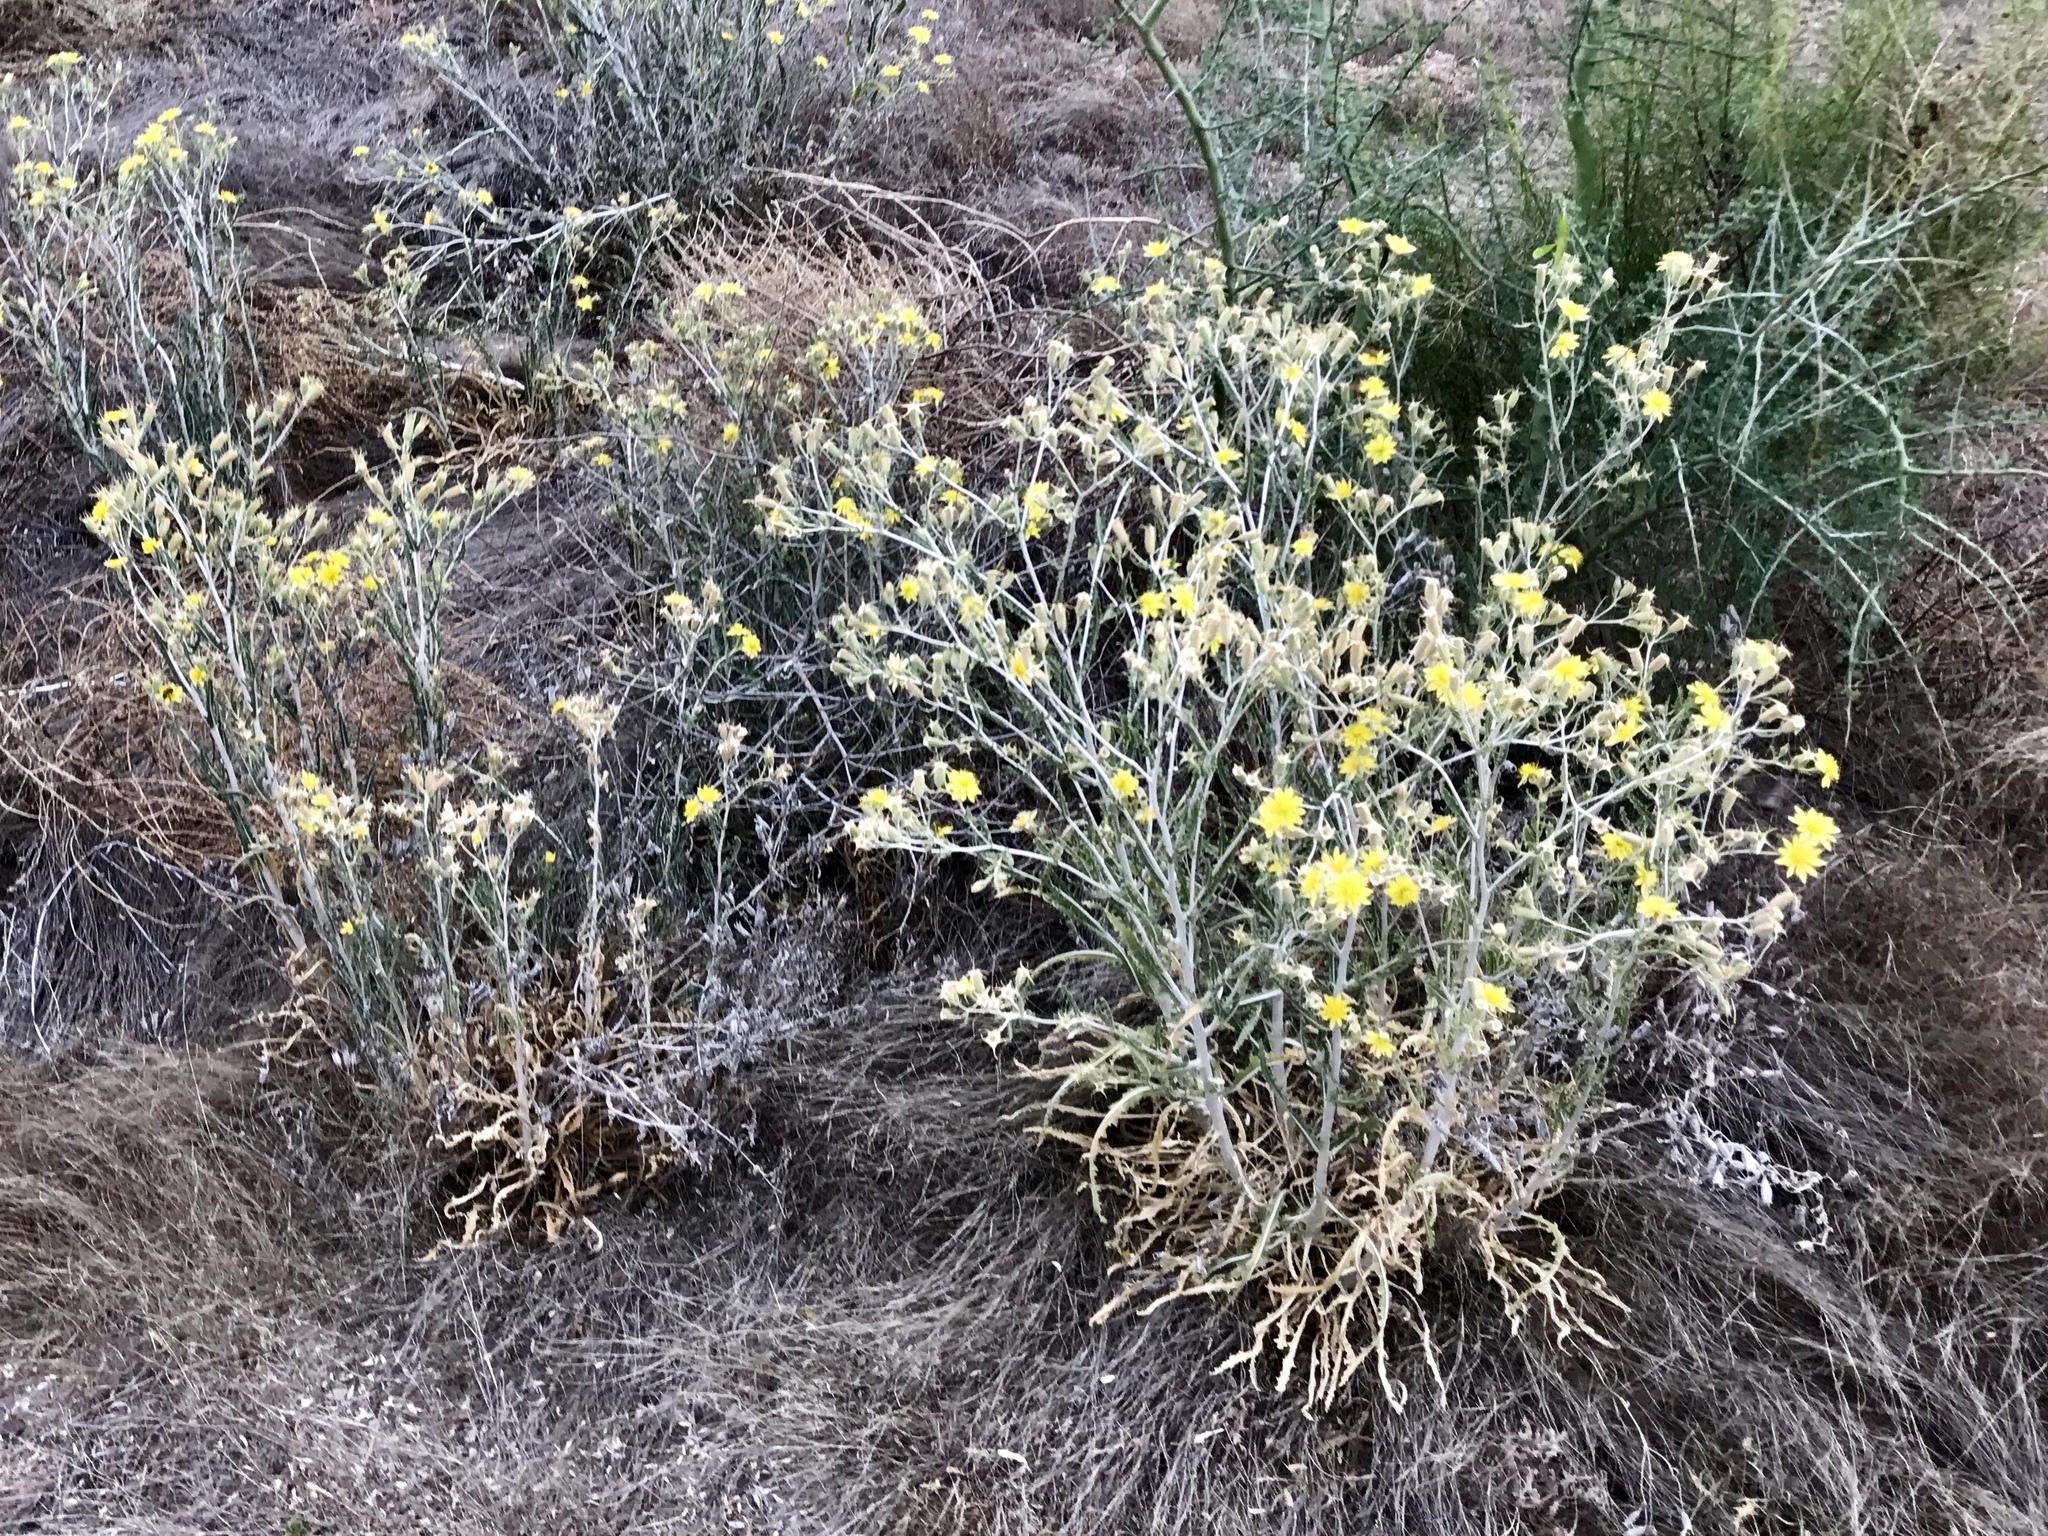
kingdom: Plantae
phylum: Tracheophyta
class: Magnoliopsida
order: Cornales
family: Loasaceae
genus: Mentzelia
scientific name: Mentzelia longiloba
